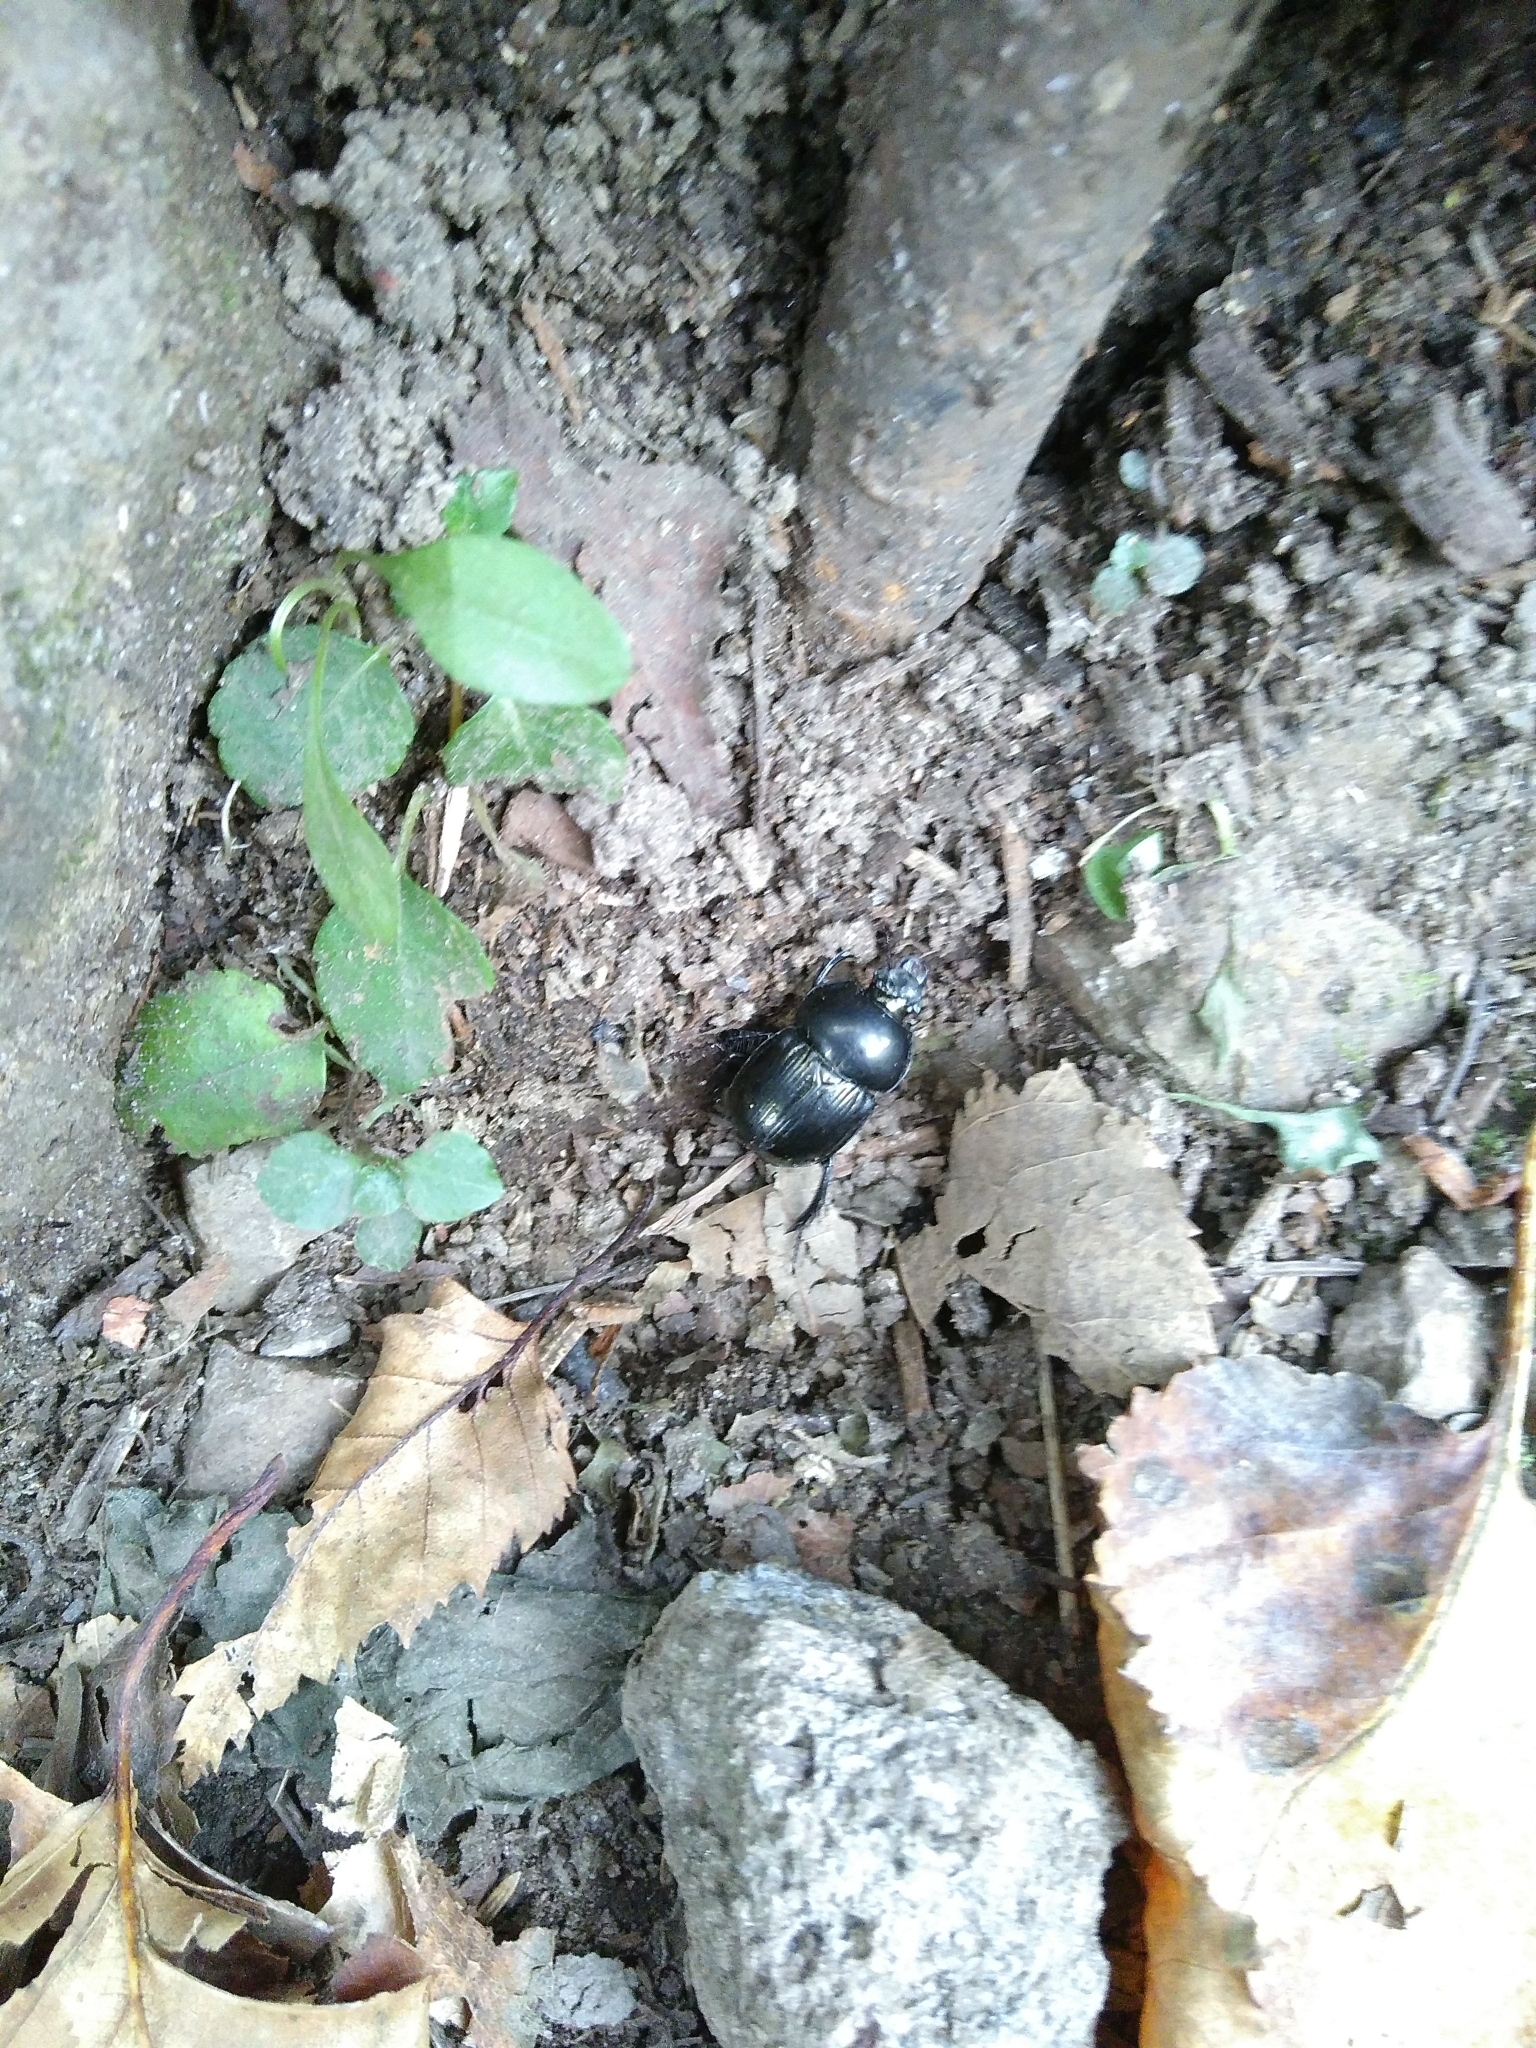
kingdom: Animalia
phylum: Arthropoda
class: Insecta
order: Coleoptera
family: Geotrupidae
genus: Phelotrupes
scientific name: Phelotrupes laevistriatus
